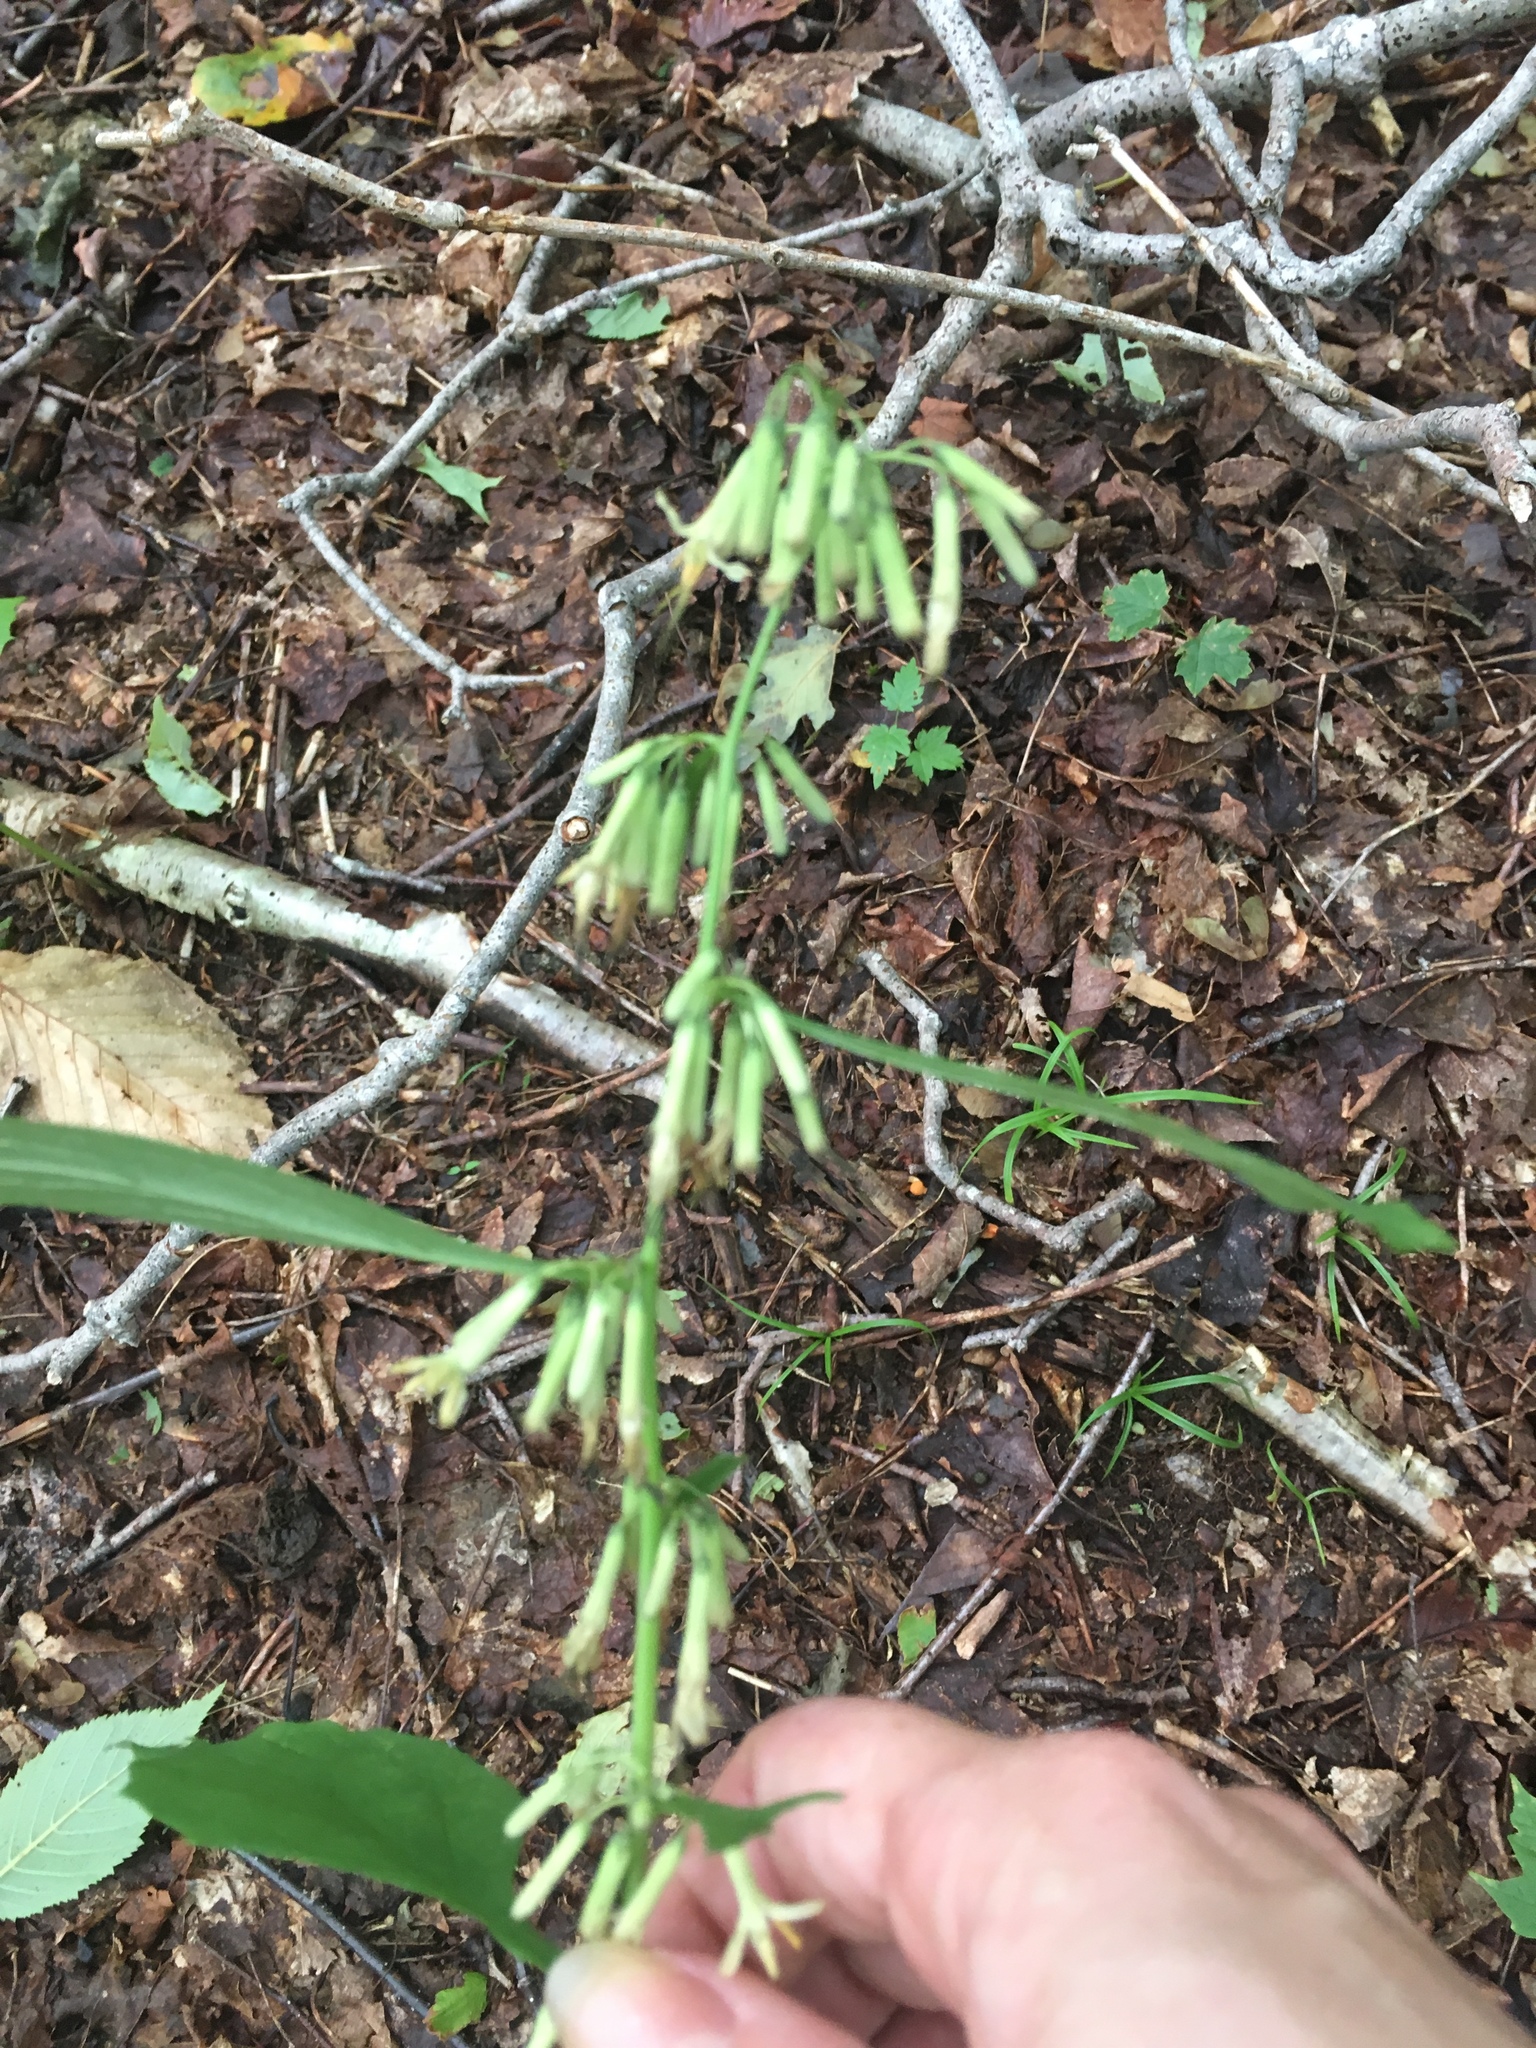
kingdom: Plantae
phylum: Tracheophyta
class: Magnoliopsida
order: Asterales
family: Asteraceae
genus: Nabalus
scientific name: Nabalus altissima
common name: Tall rattlesnakeroot
